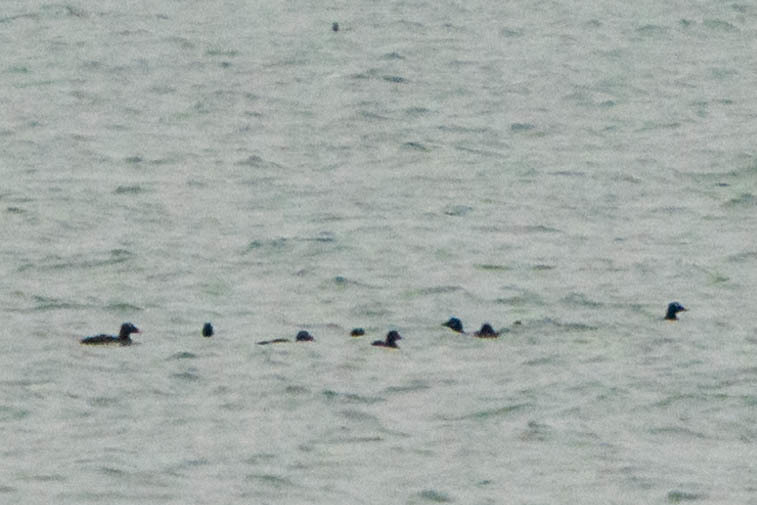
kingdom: Animalia
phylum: Chordata
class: Aves
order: Anseriformes
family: Anatidae
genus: Melanitta
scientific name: Melanitta deglandi
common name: White-winged scoter
